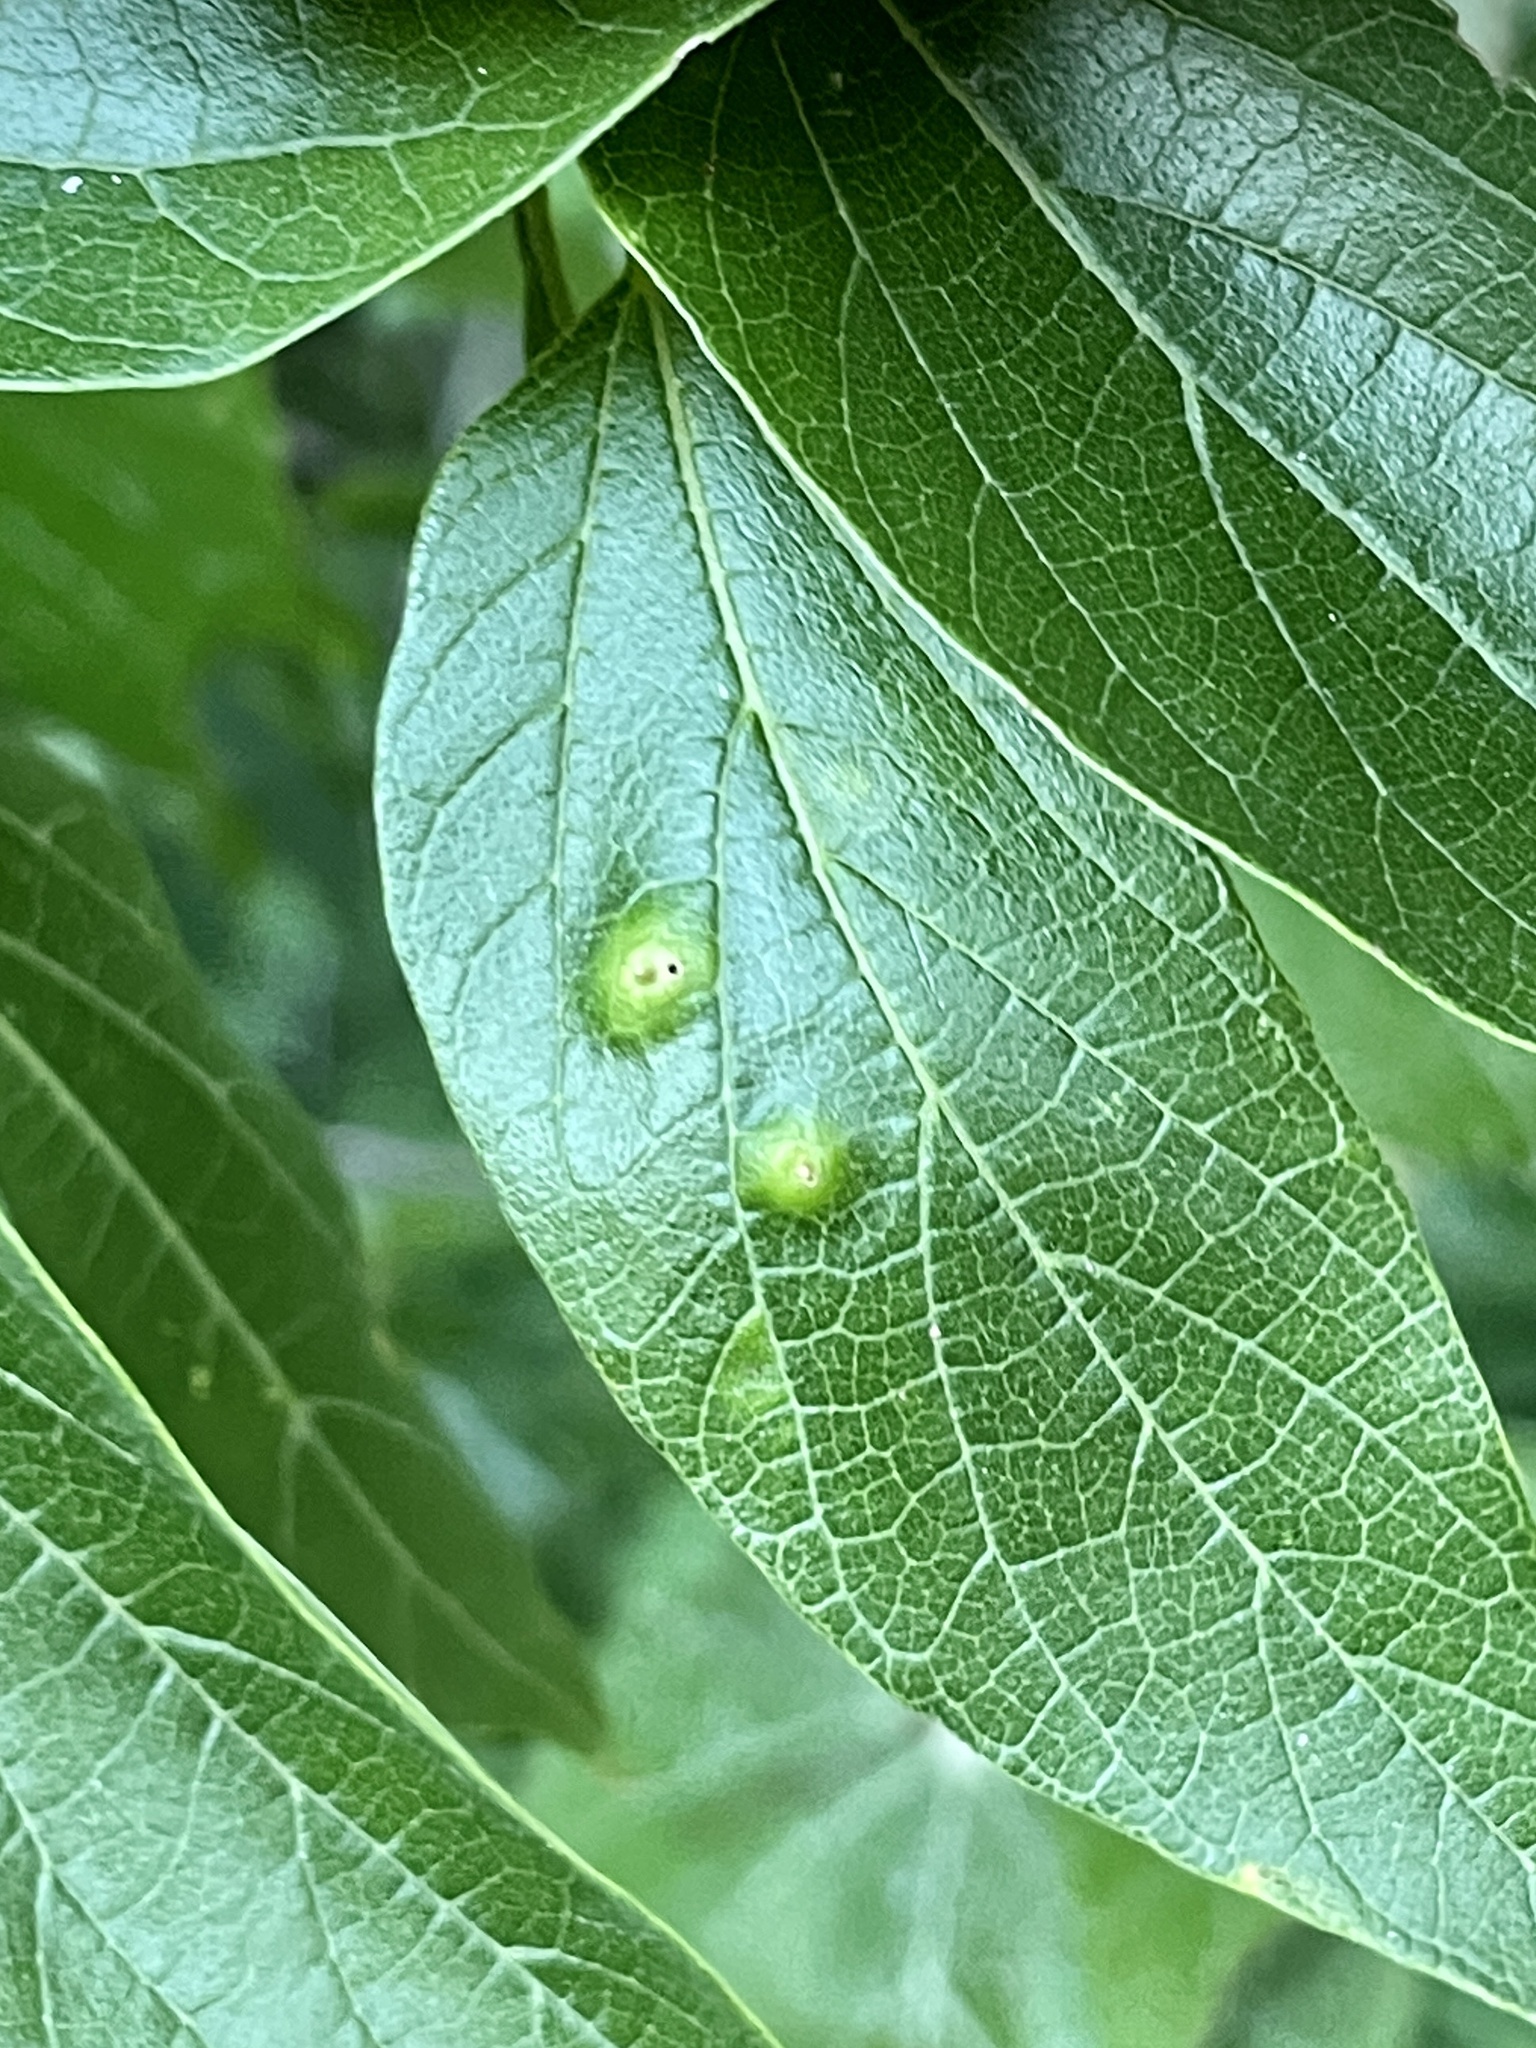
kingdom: Animalia
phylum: Arthropoda
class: Insecta
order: Hemiptera
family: Aphalaridae
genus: Pachypsylla
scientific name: Pachypsylla celtidisasterisca
